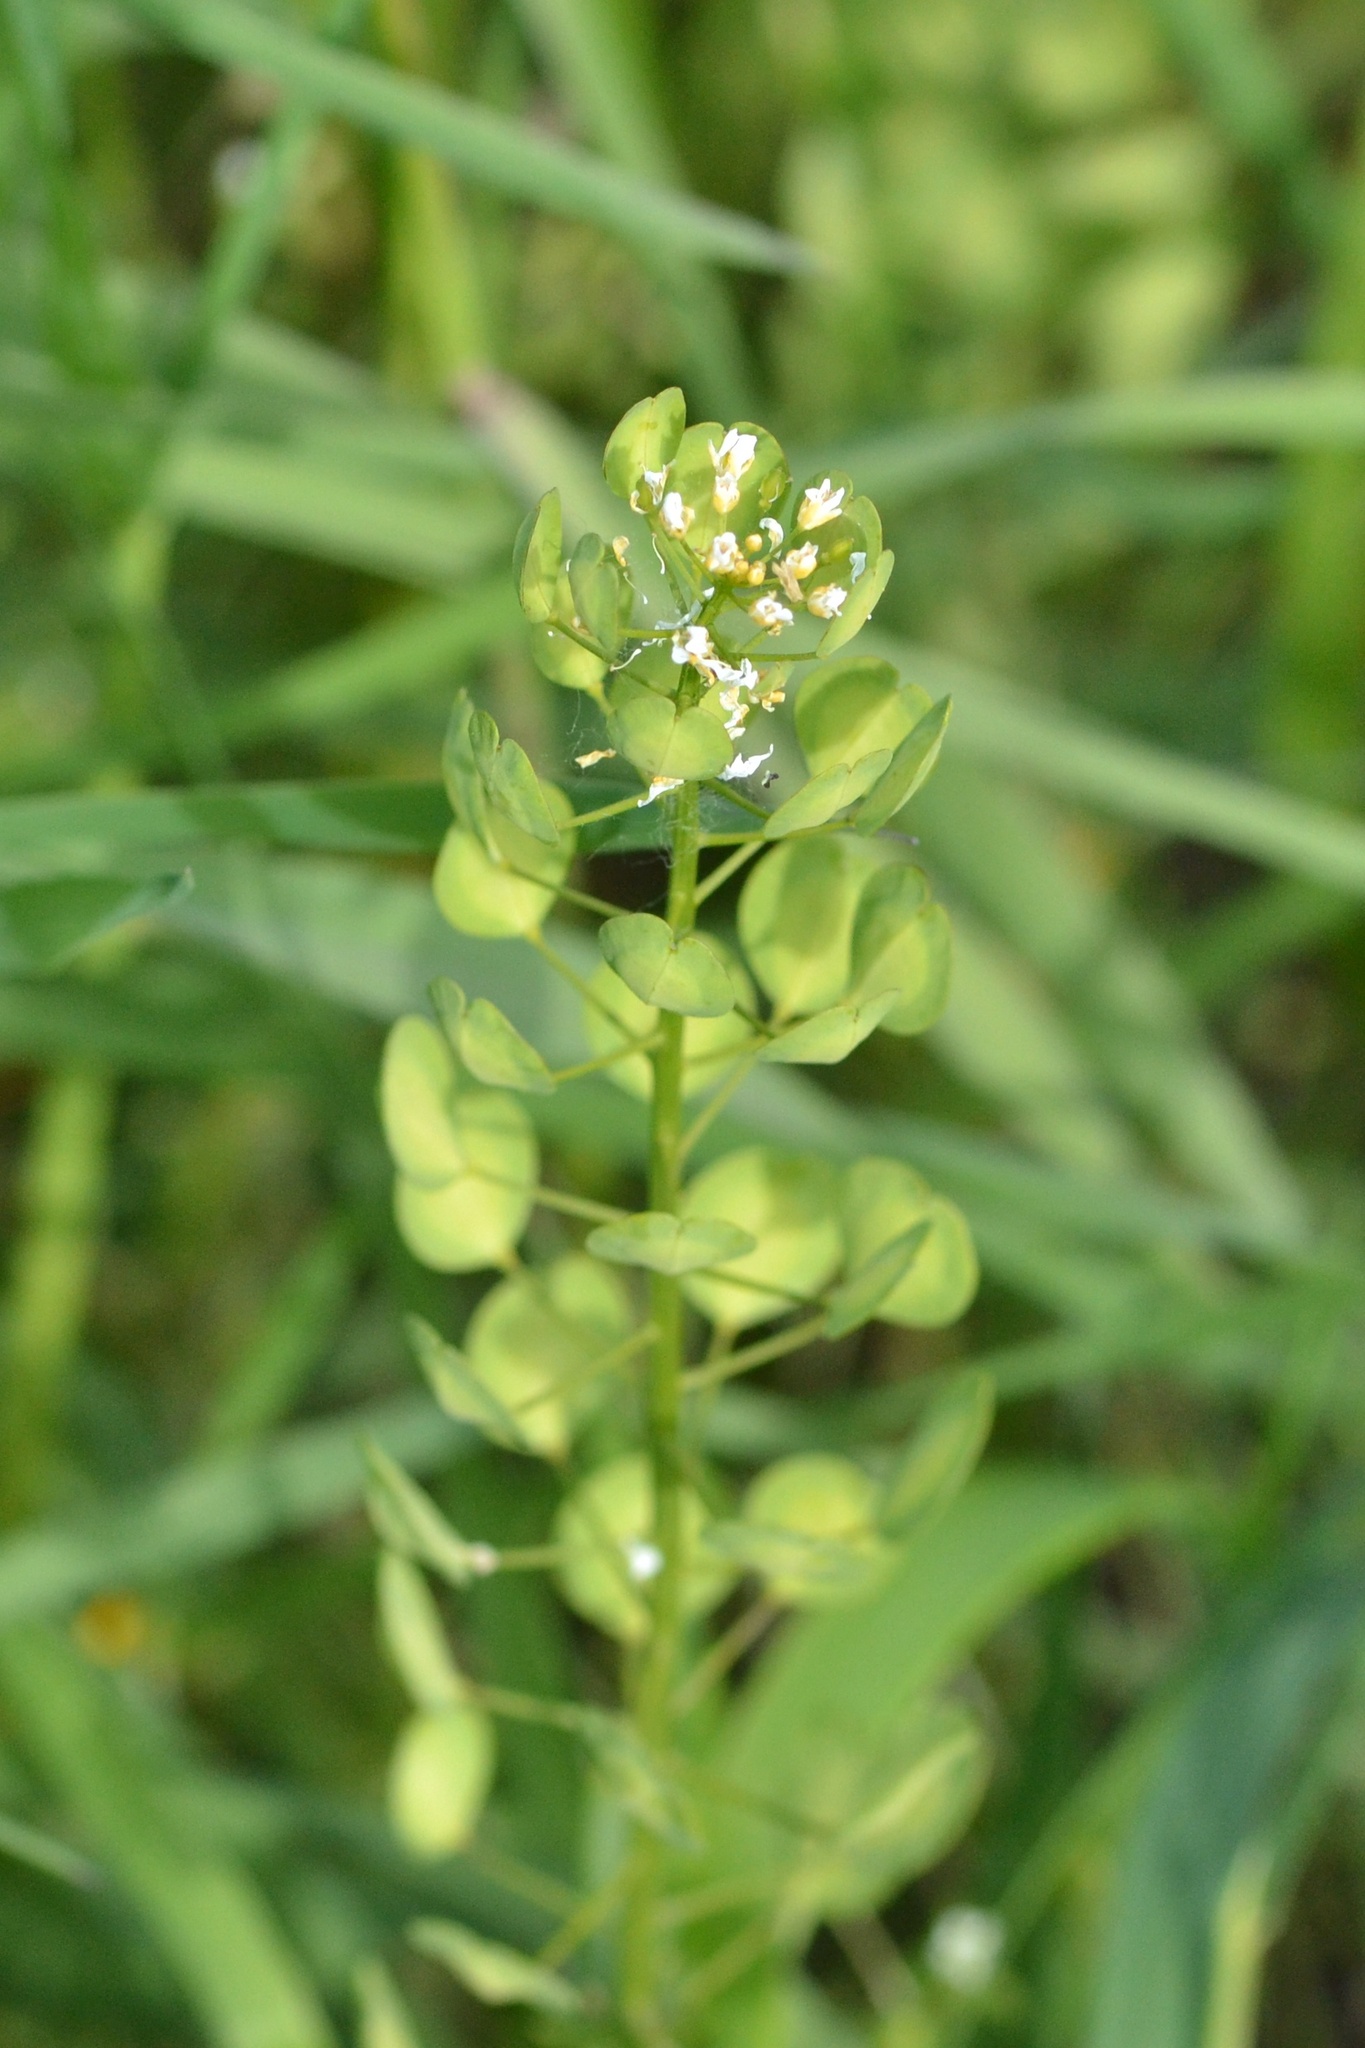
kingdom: Plantae
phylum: Tracheophyta
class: Magnoliopsida
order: Brassicales
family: Brassicaceae
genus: Thlaspi
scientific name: Thlaspi arvense
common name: Field pennycress
